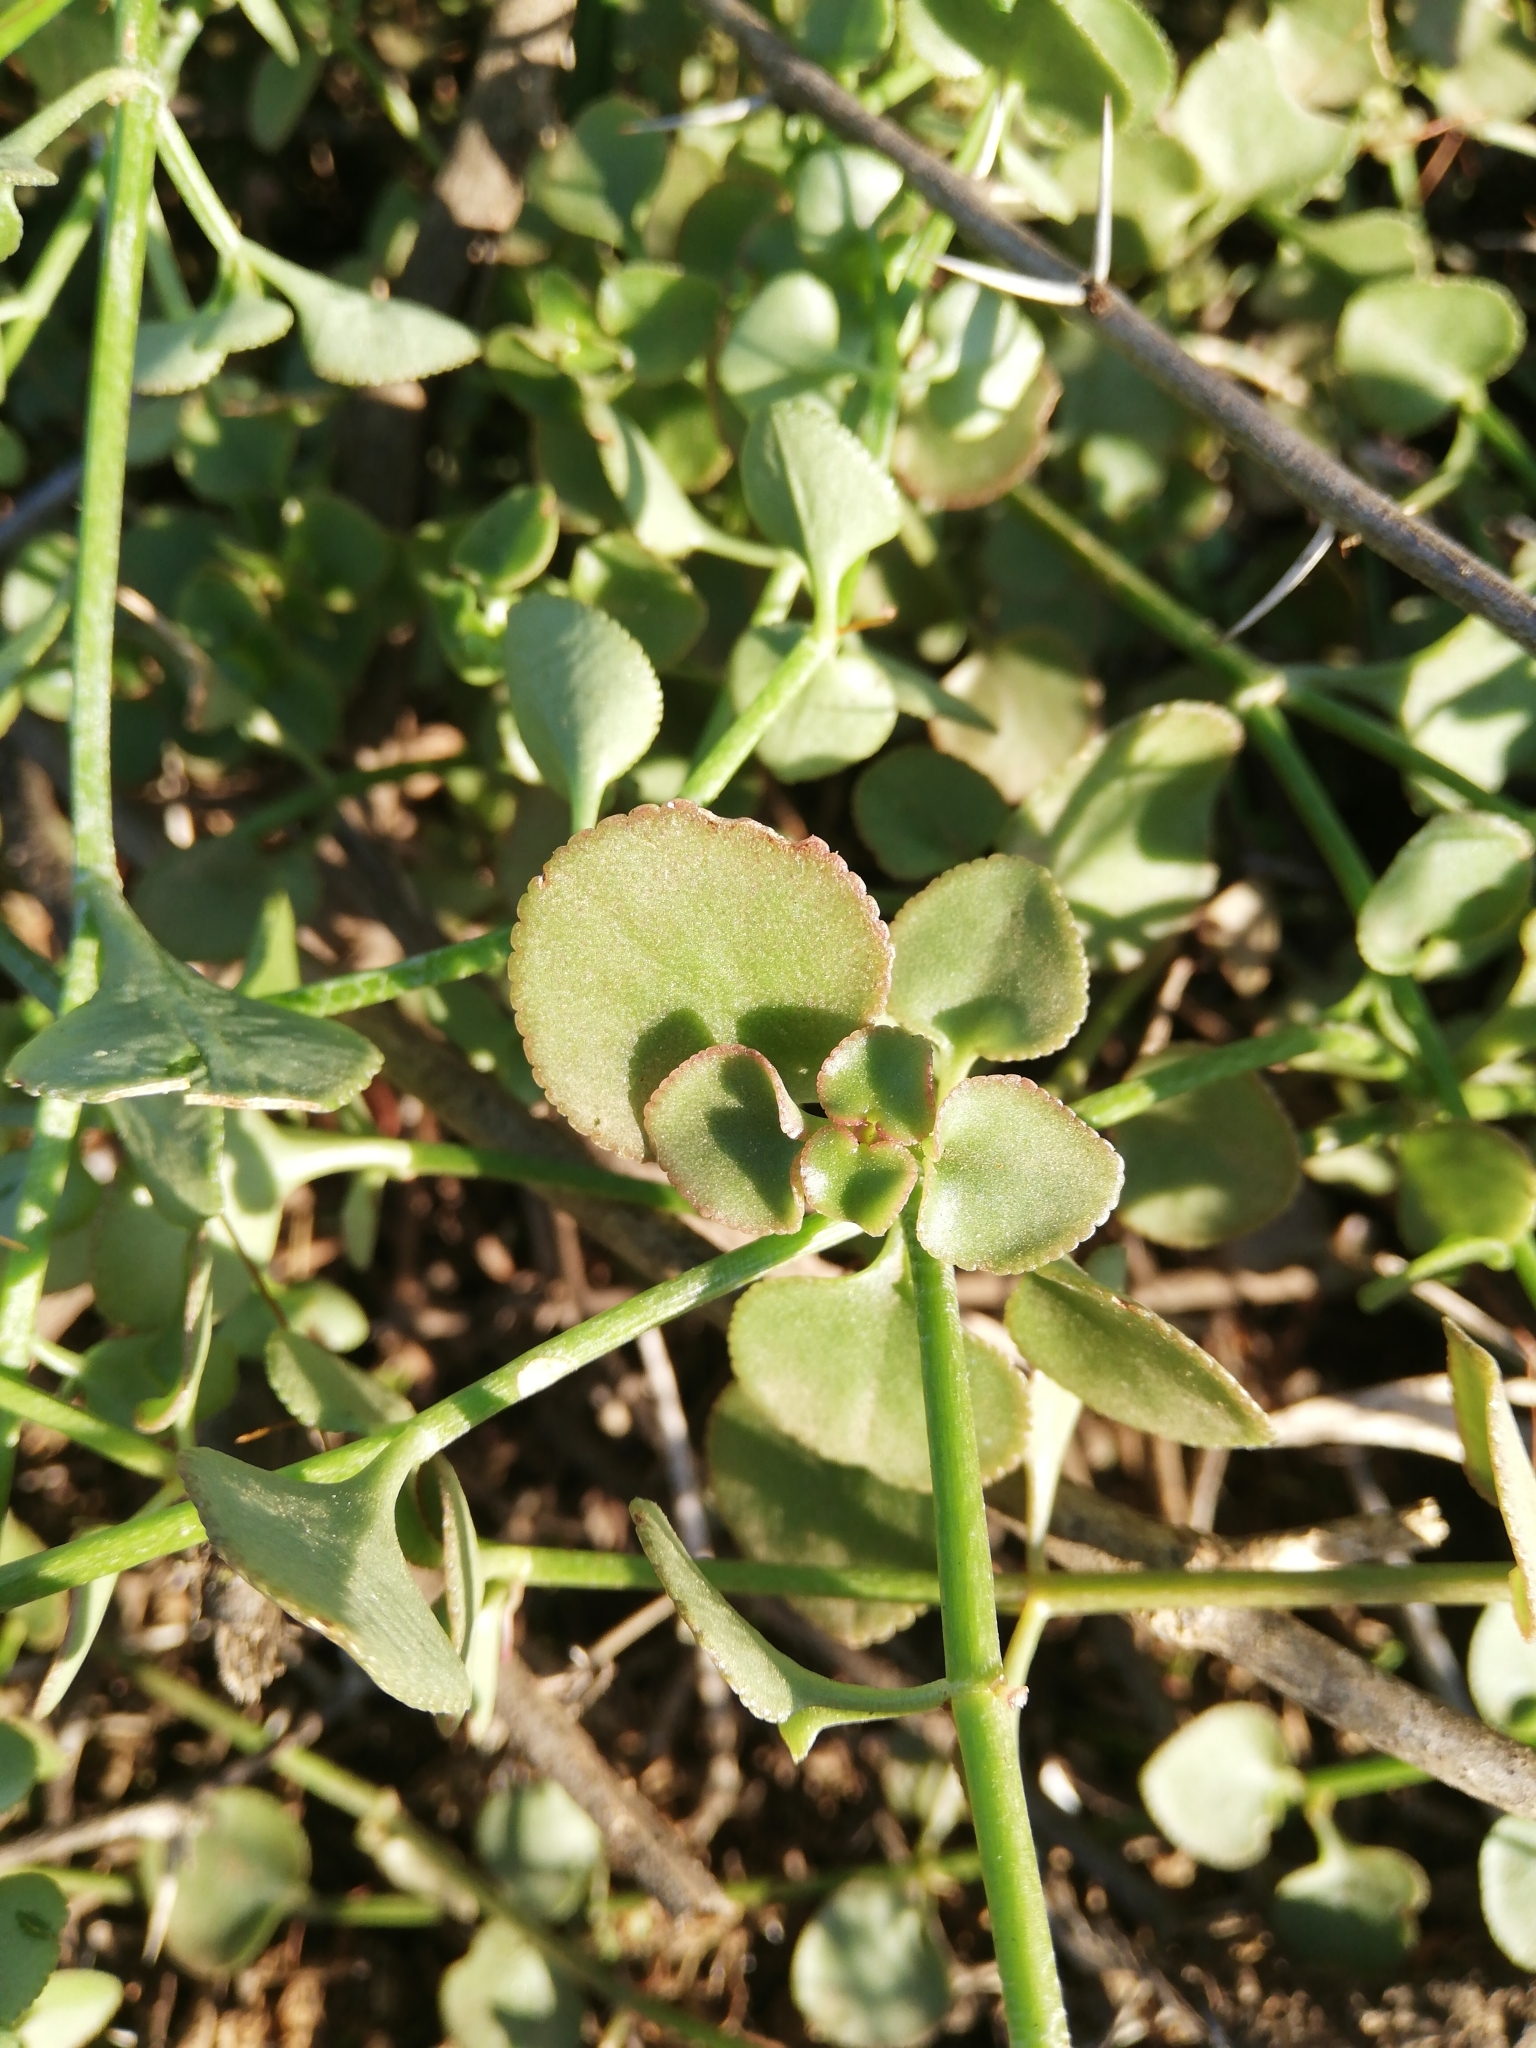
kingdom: Plantae
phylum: Tracheophyta
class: Magnoliopsida
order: Saxifragales
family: Crassulaceae
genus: Crassula
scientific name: Crassula spathulata
